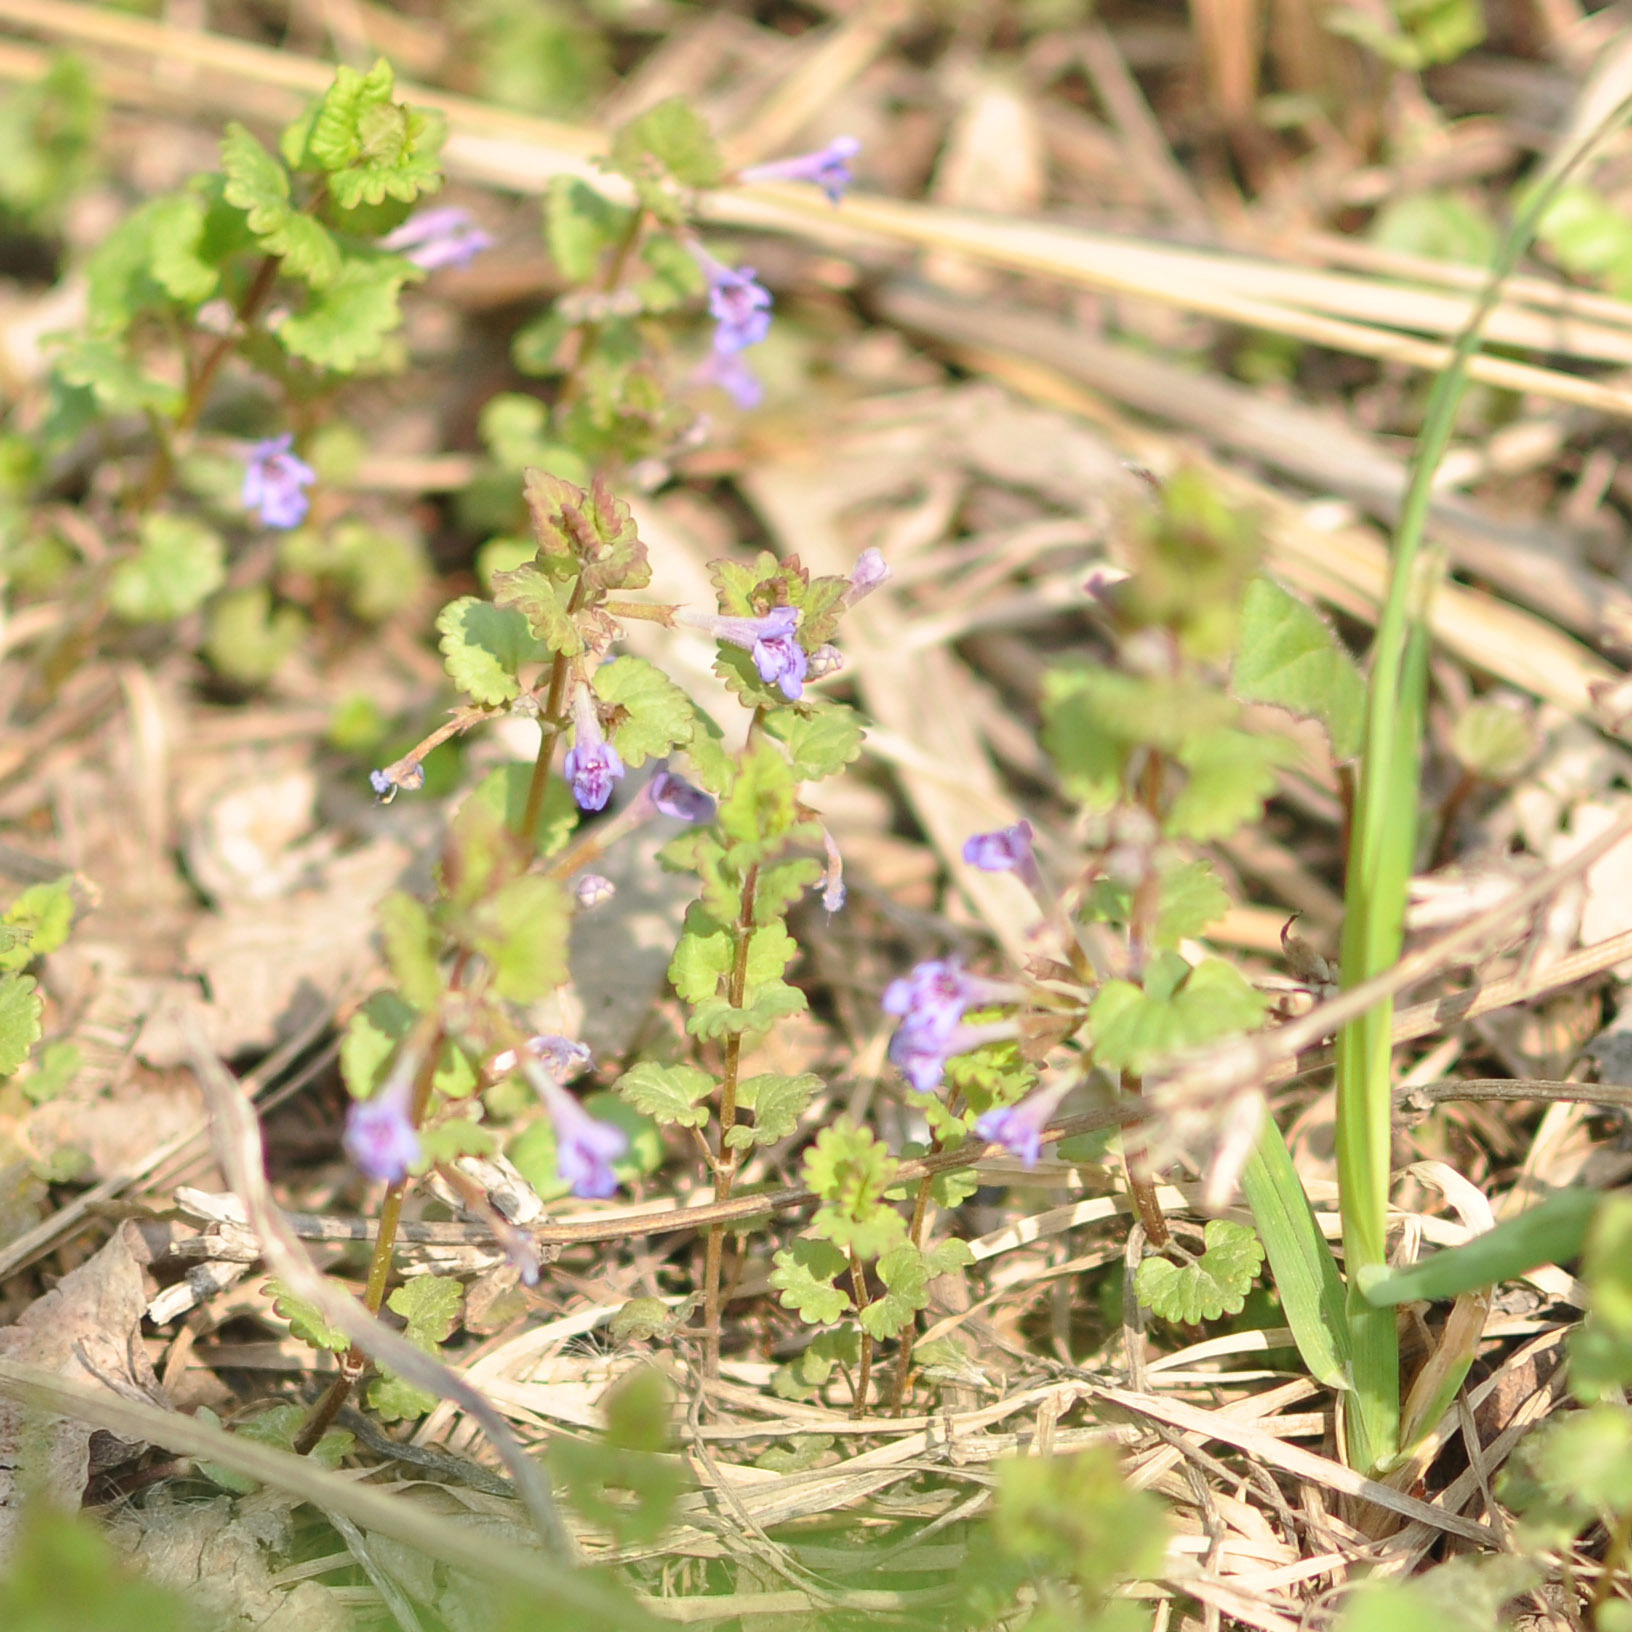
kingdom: Plantae
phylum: Tracheophyta
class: Magnoliopsida
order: Lamiales
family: Lamiaceae
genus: Glechoma
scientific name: Glechoma hederacea
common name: Ground ivy
